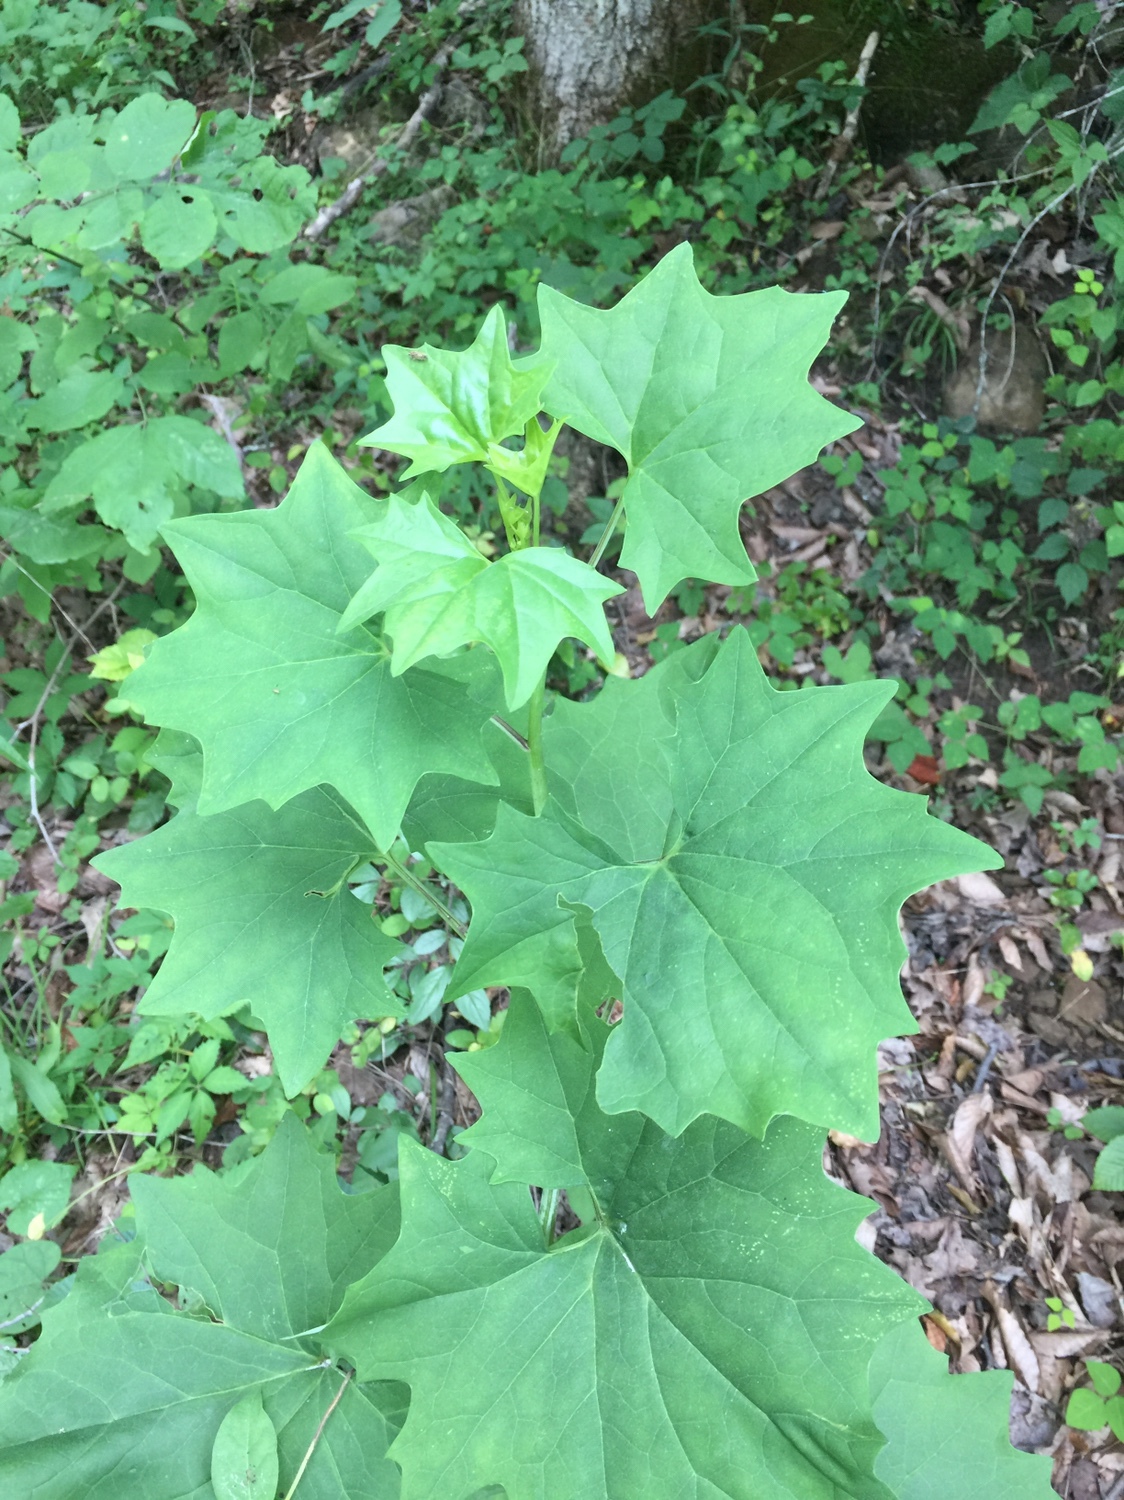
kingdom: Plantae
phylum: Tracheophyta
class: Magnoliopsida
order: Asterales
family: Asteraceae
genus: Arnoglossum
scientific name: Arnoglossum atriplicifolium
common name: Pale indian-plantain
